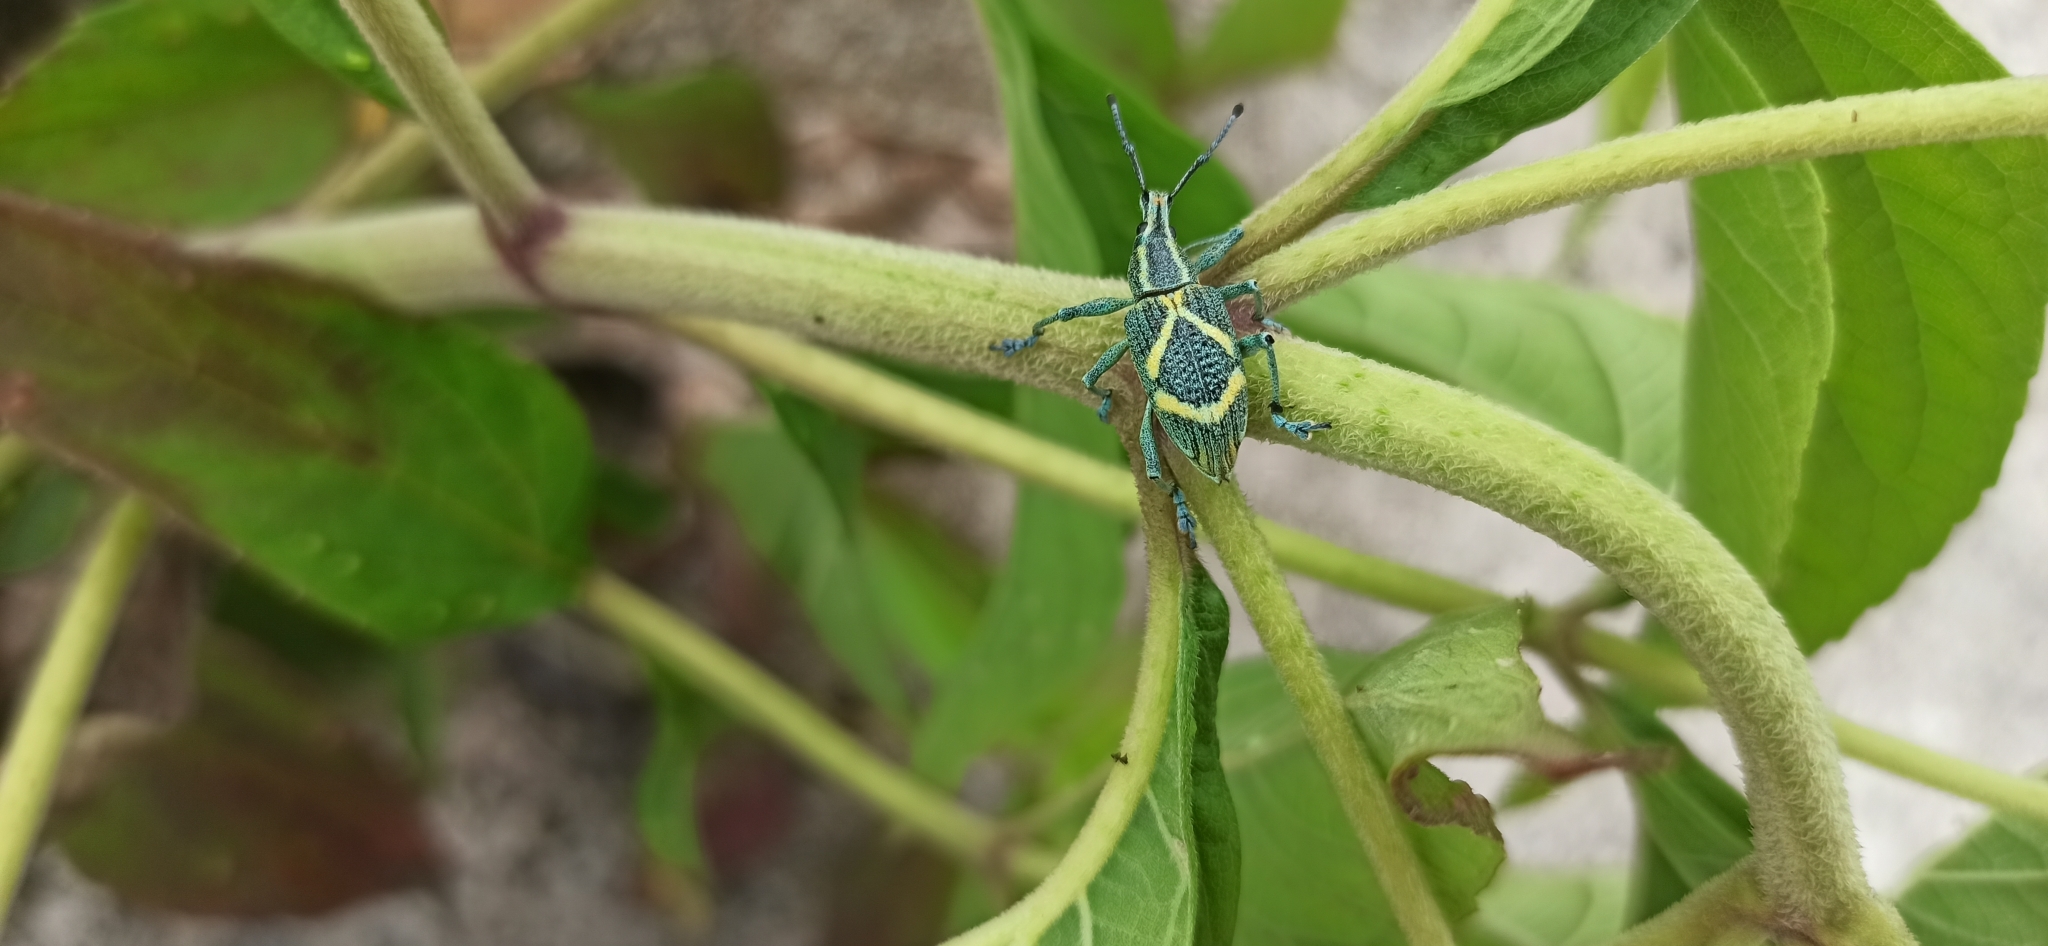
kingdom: Animalia
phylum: Arthropoda
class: Insecta
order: Coleoptera
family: Curculionidae
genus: Exophthalmus
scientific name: Exophthalmus parentheticus
